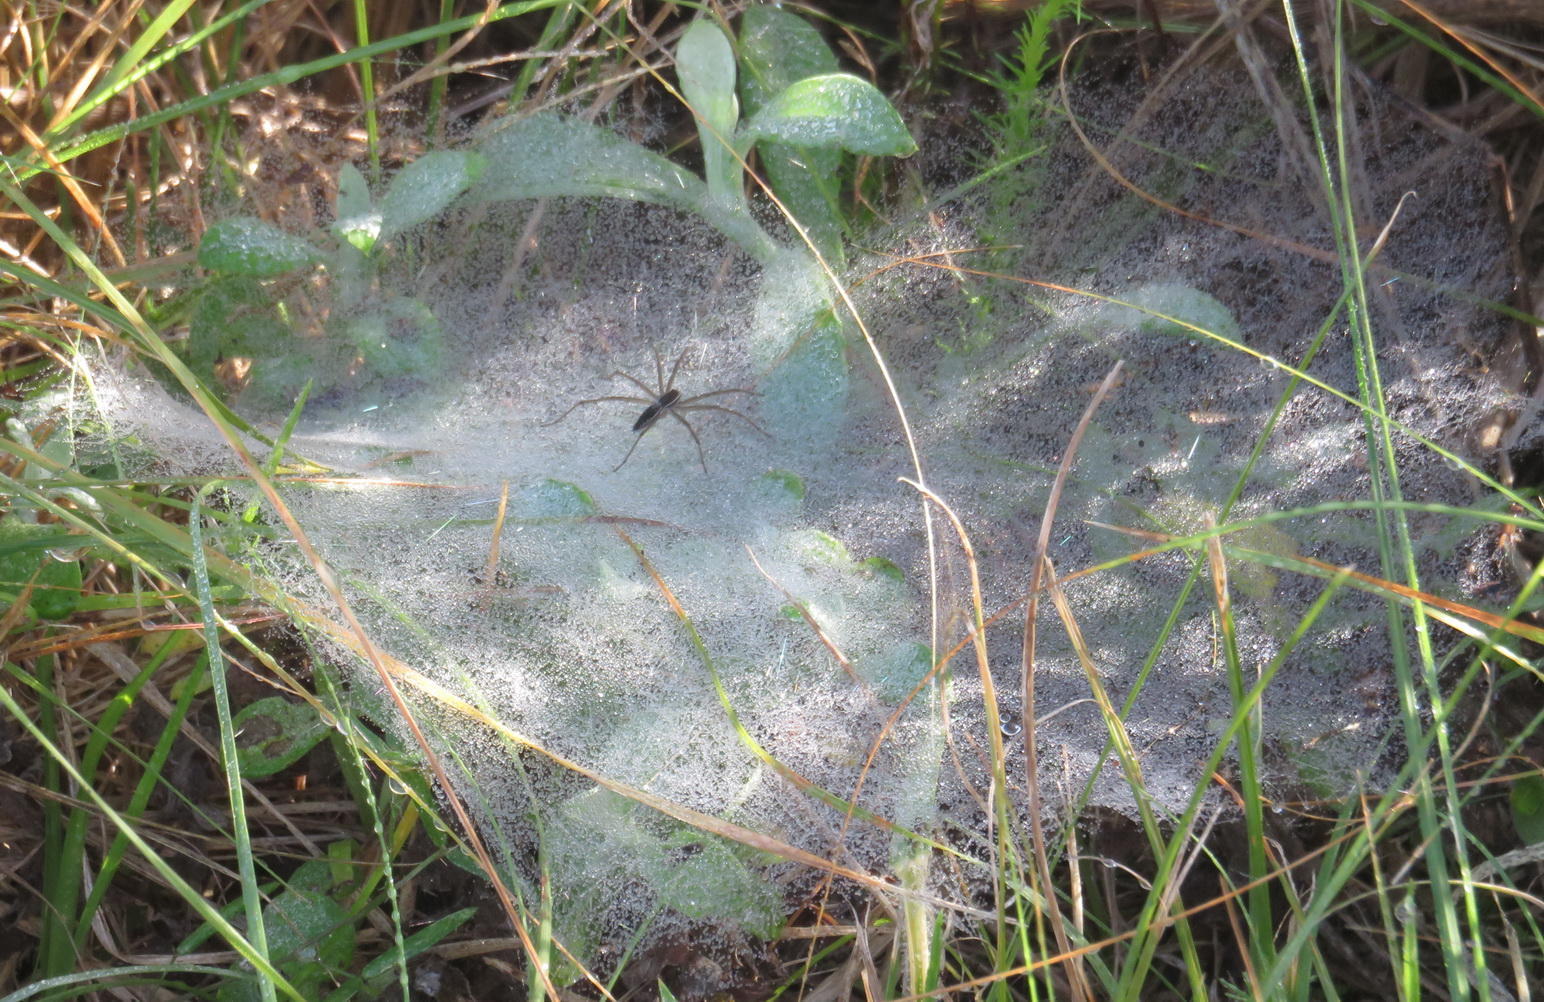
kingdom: Animalia
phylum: Arthropoda
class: Arachnida
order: Araneae
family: Pisauridae
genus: Euprosthenopsis
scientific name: Euprosthenopsis pulchella
